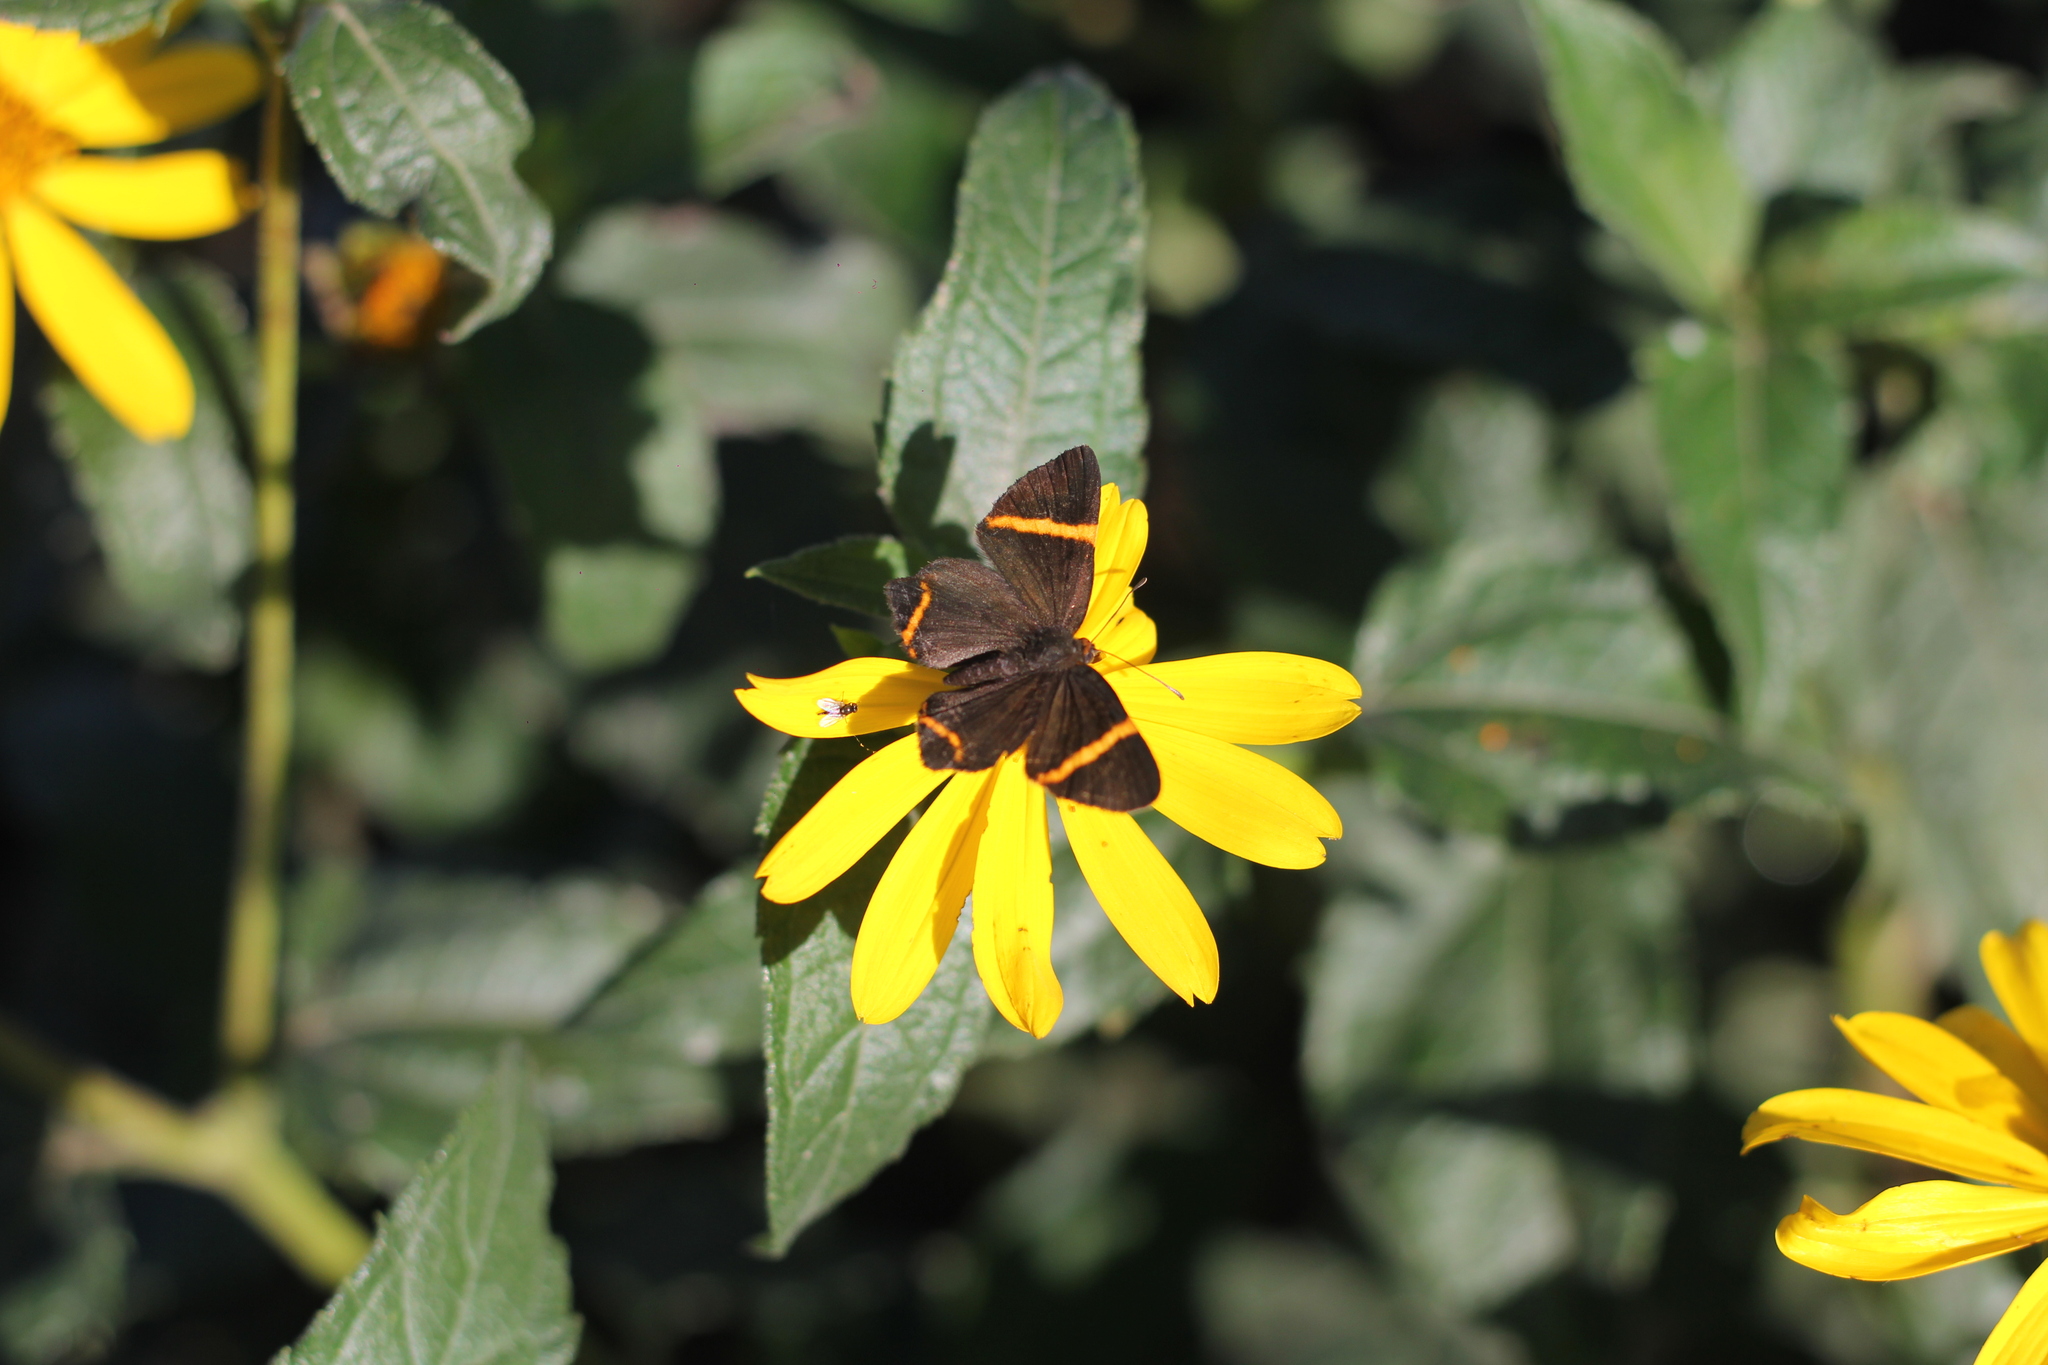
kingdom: Animalia
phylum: Arthropoda
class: Insecta
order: Lepidoptera
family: Riodinidae
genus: Riodina
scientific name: Riodina lysippoides
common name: Little dancer metalmark
